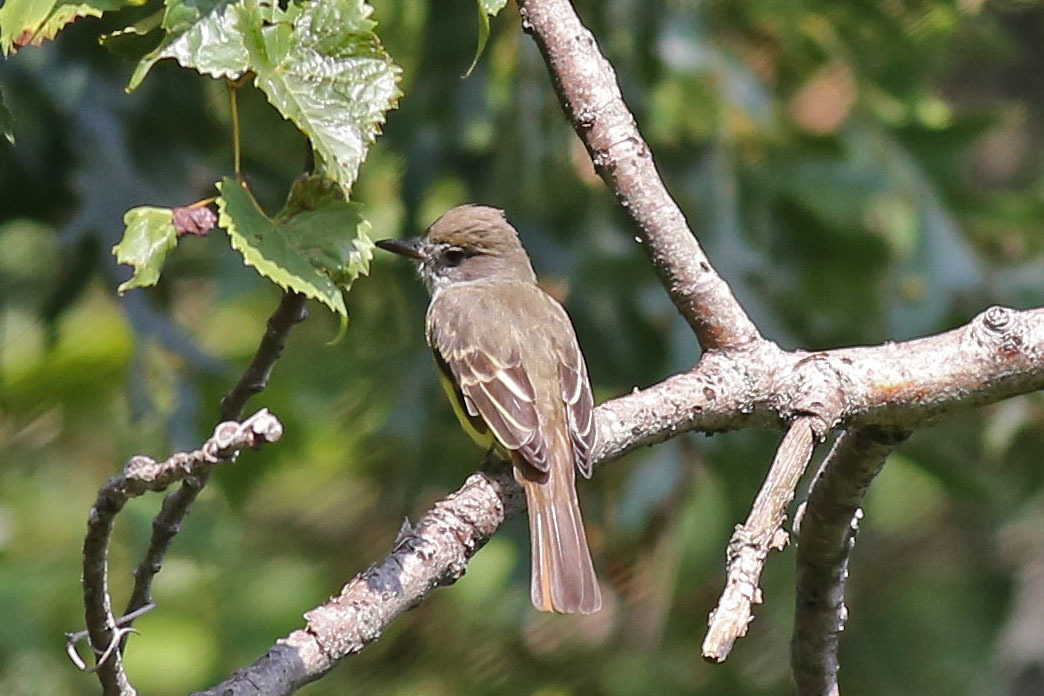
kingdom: Animalia
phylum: Chordata
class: Aves
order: Passeriformes
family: Tyrannidae
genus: Myiarchus
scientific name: Myiarchus crinitus
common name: Great crested flycatcher
